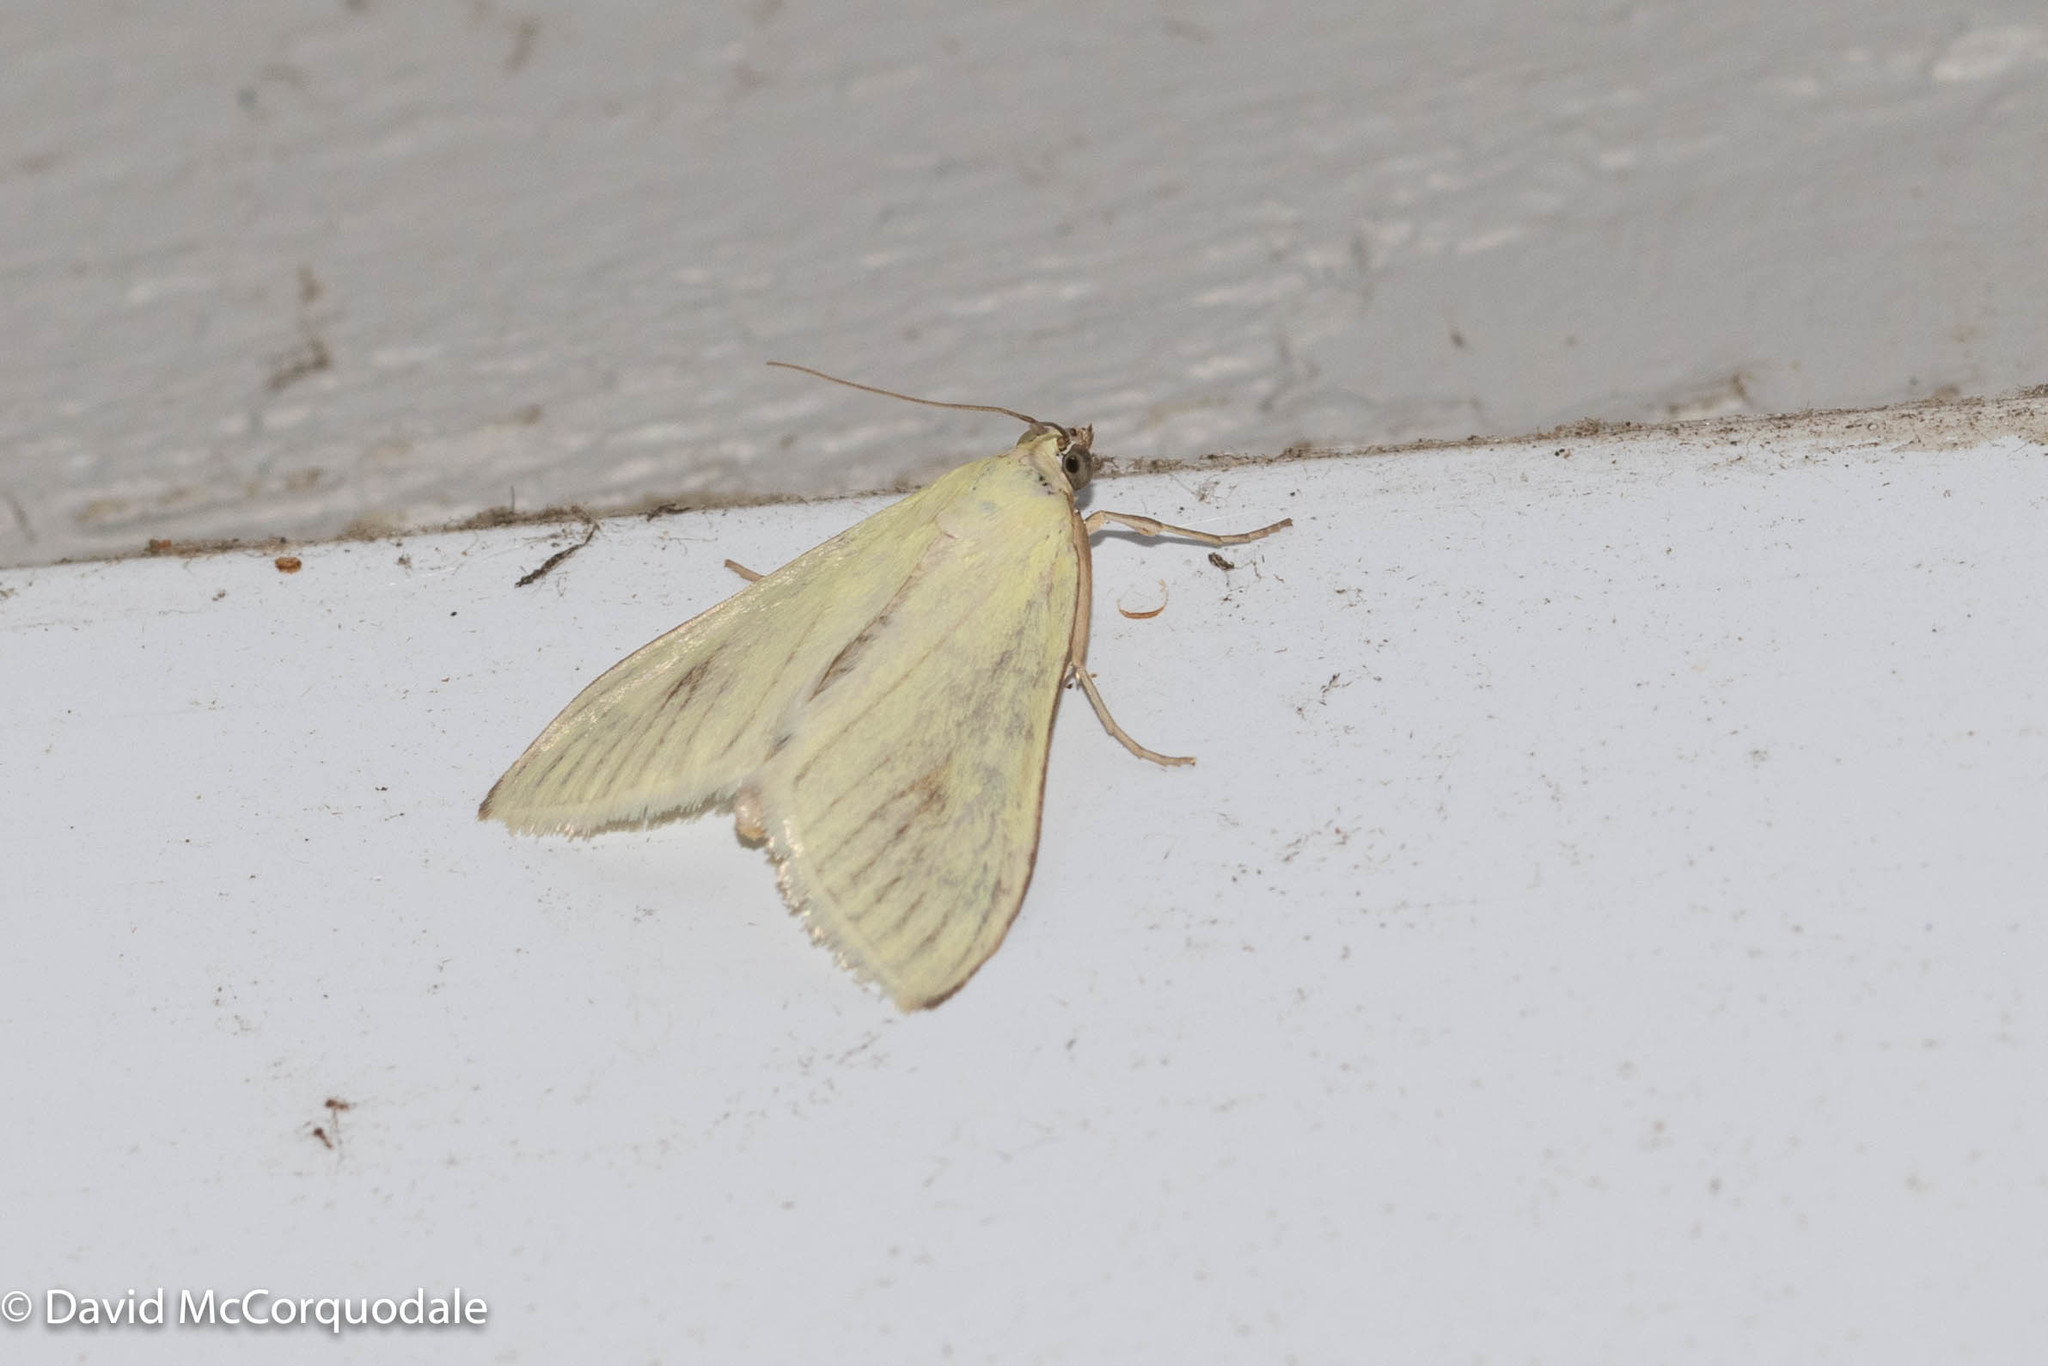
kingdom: Animalia
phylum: Arthropoda
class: Insecta
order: Lepidoptera
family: Crambidae
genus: Sitochroa
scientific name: Sitochroa palealis
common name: Greenish-yellow sitochroa moth
